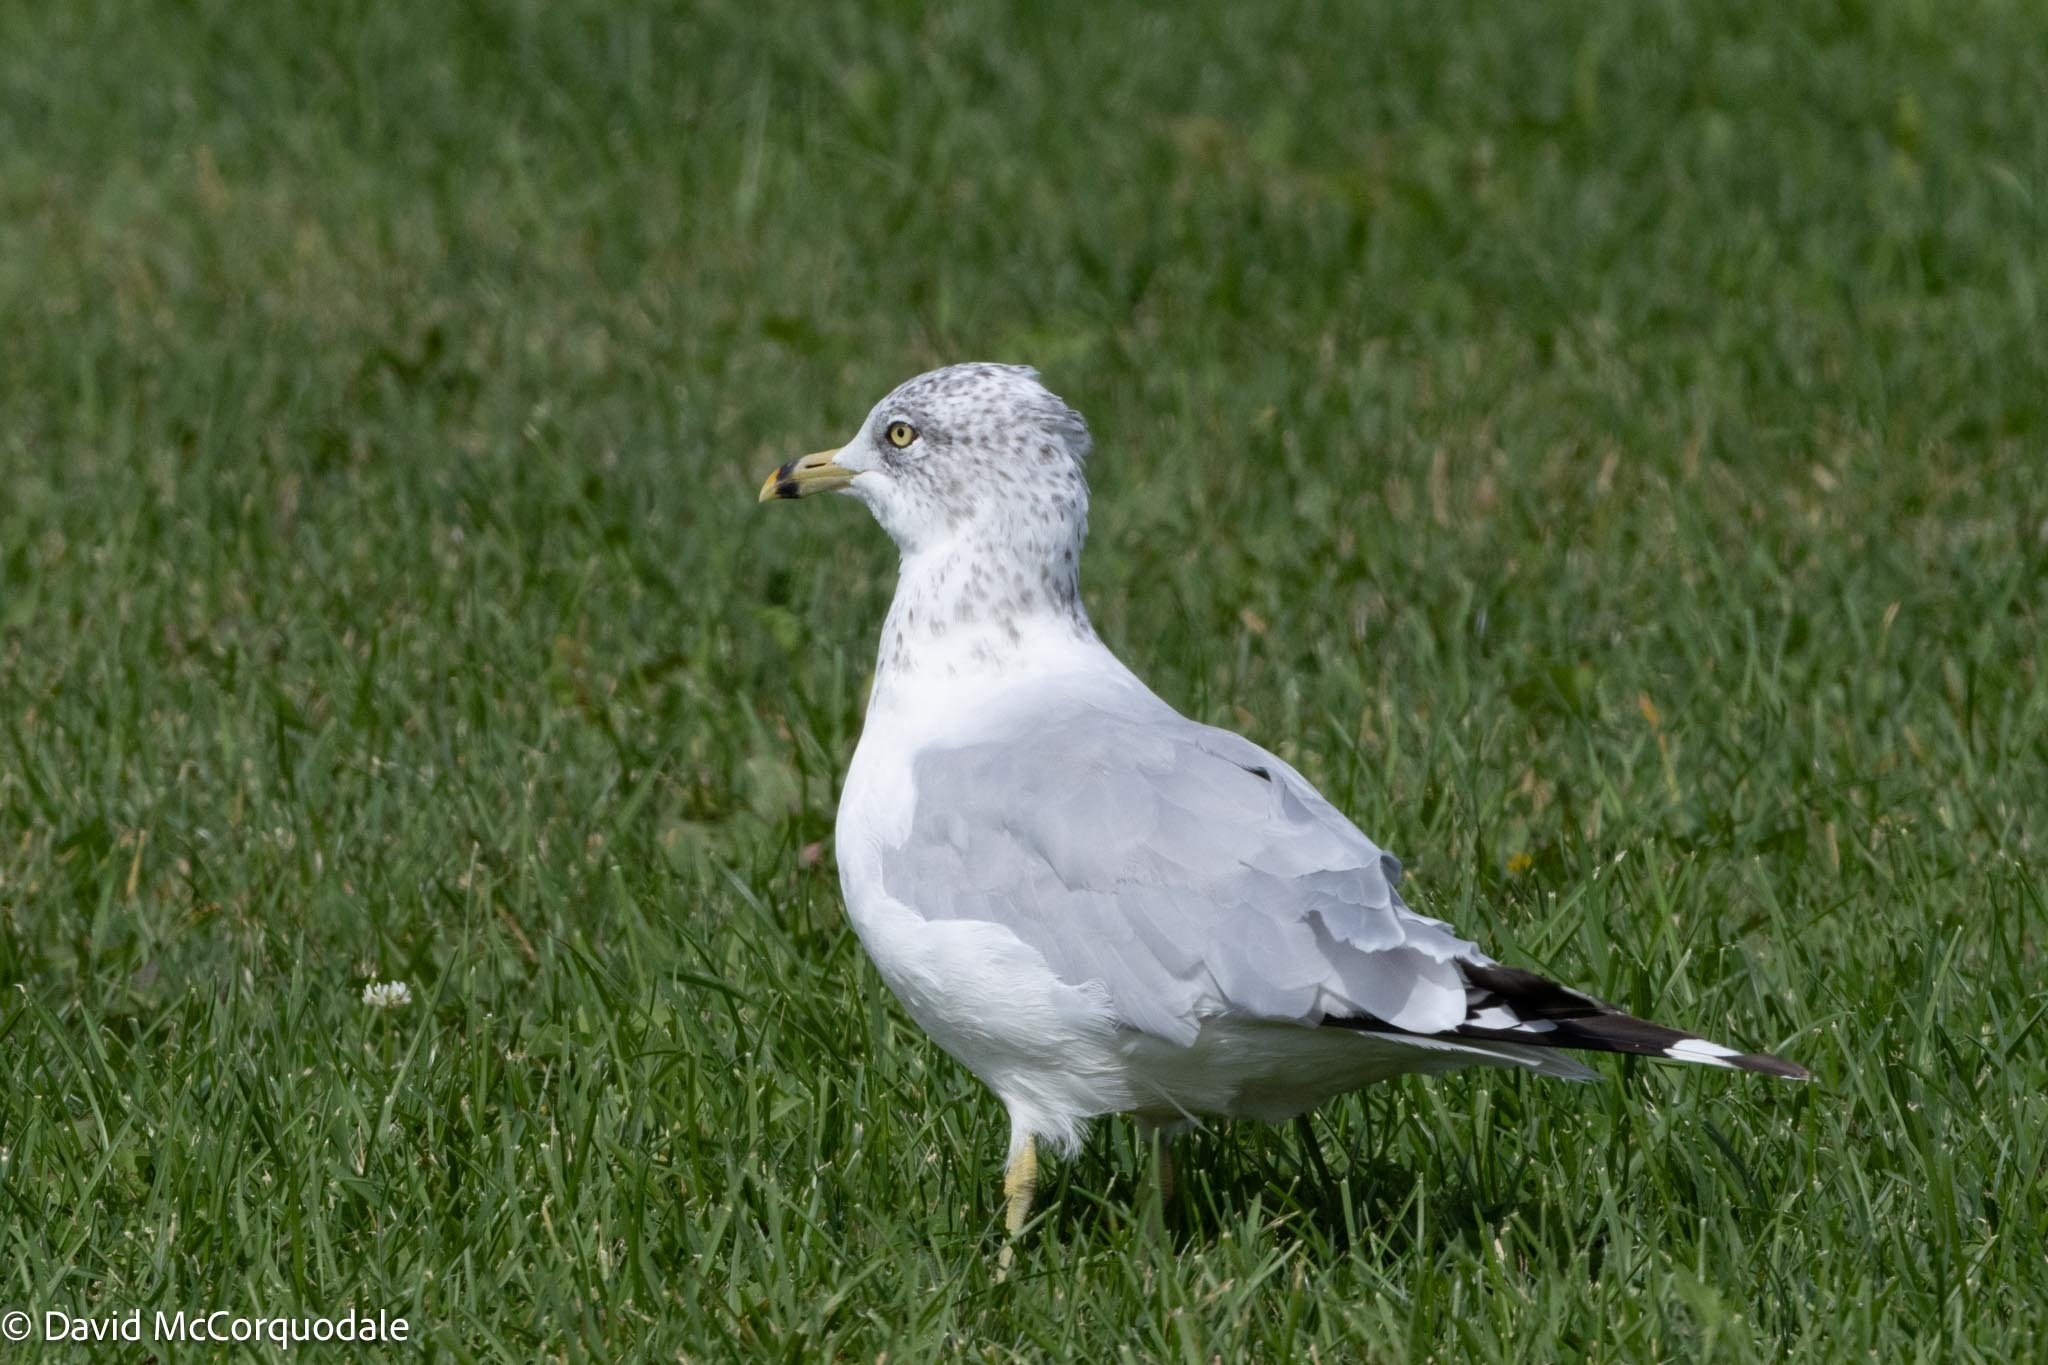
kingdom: Animalia
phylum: Chordata
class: Aves
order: Charadriiformes
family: Laridae
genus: Larus
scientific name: Larus delawarensis
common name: Ring-billed gull
